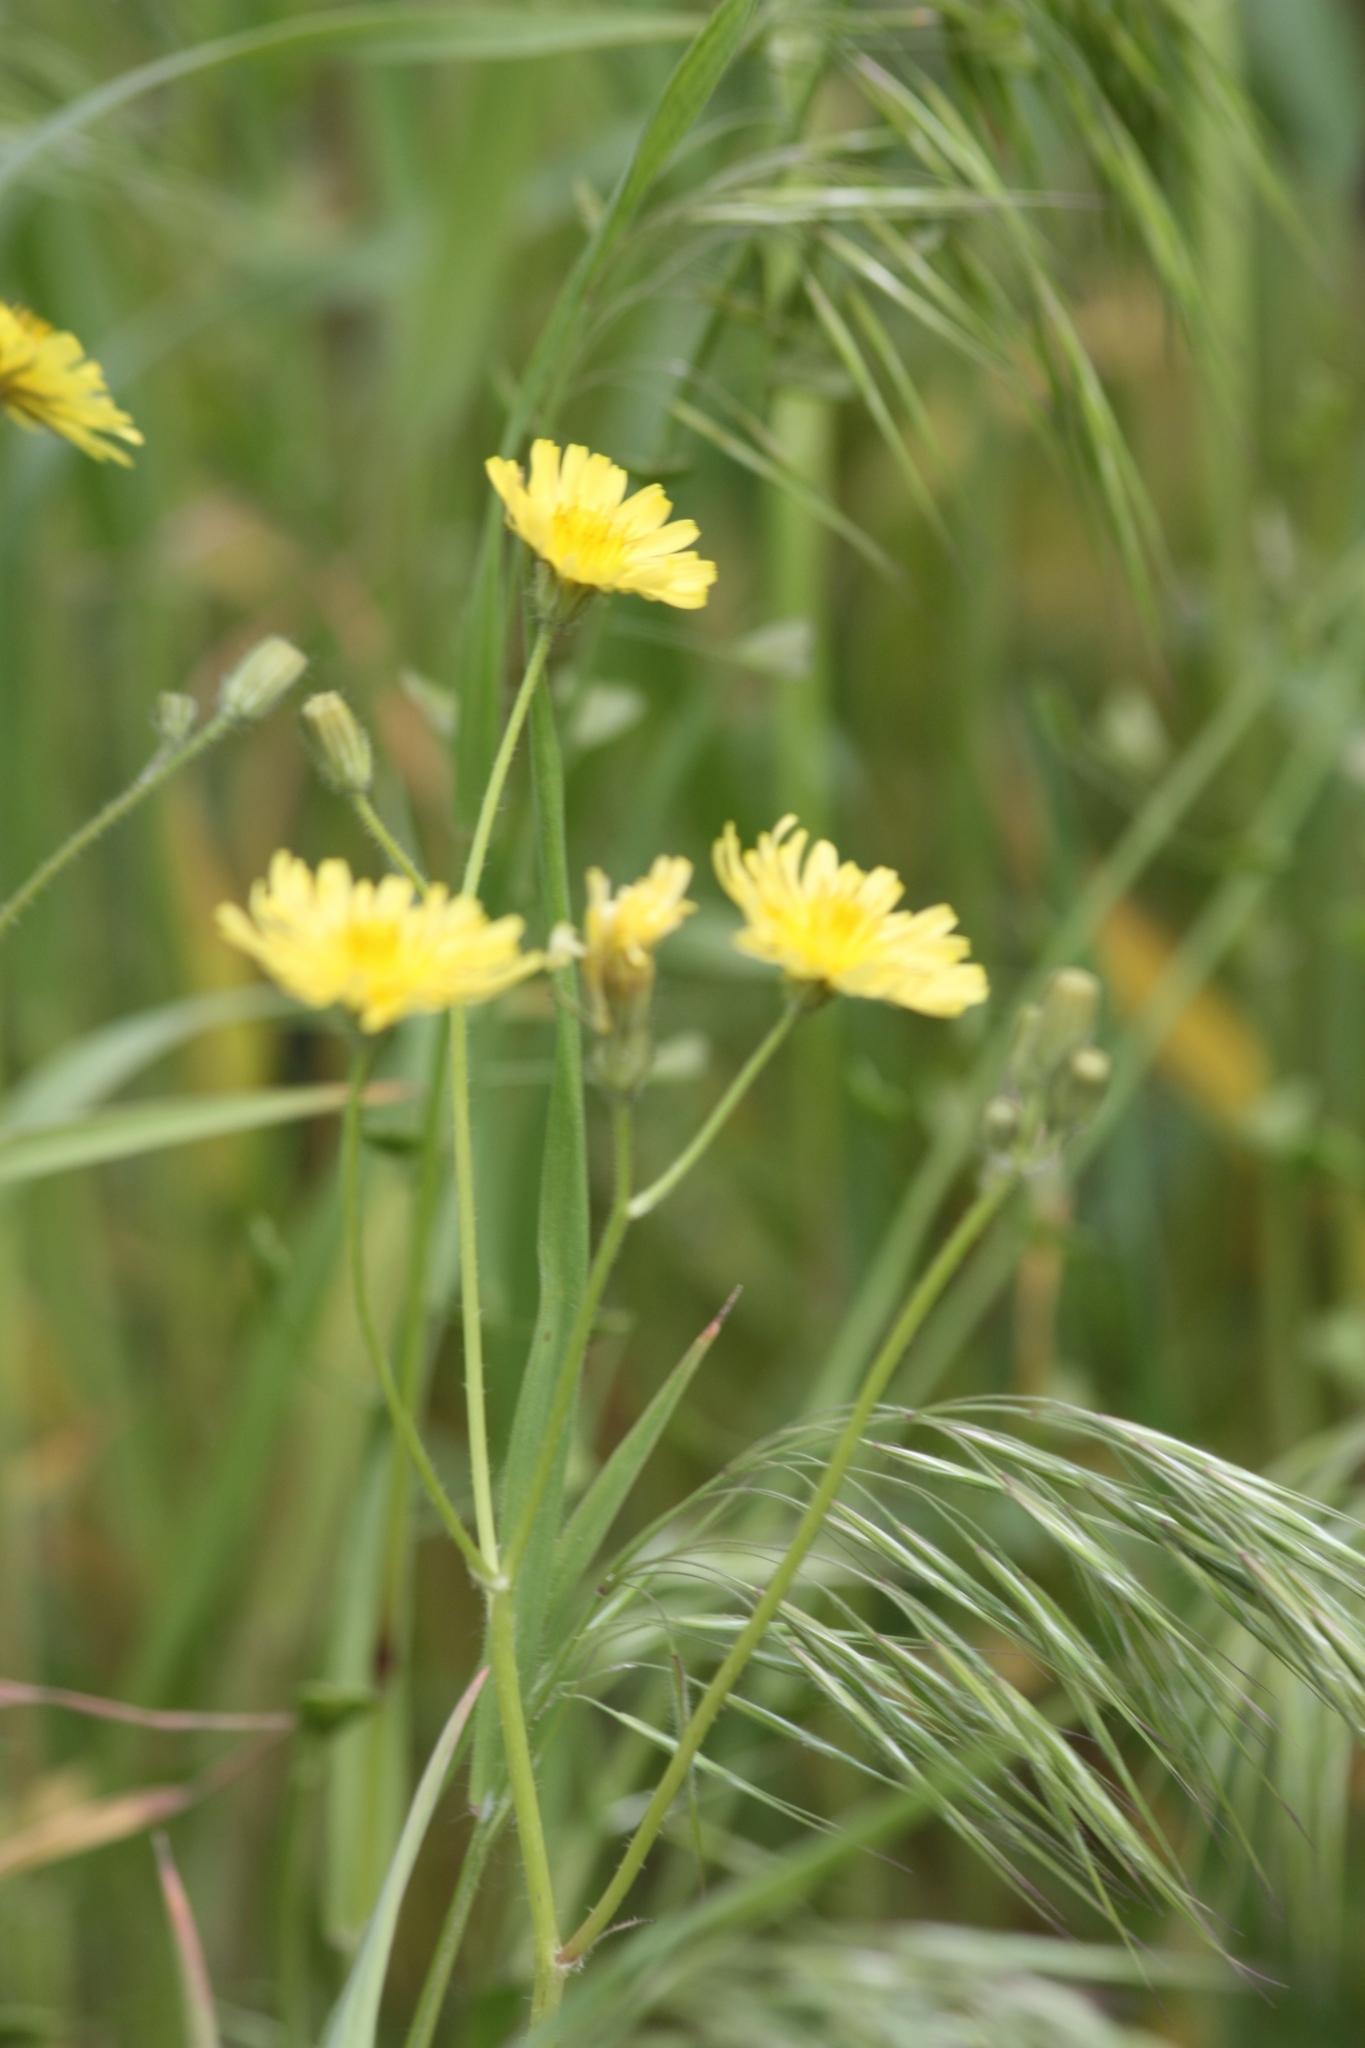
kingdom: Plantae
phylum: Tracheophyta
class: Magnoliopsida
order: Asterales
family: Asteraceae
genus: Crepis
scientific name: Crepis sancta
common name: Hawk's-beard
